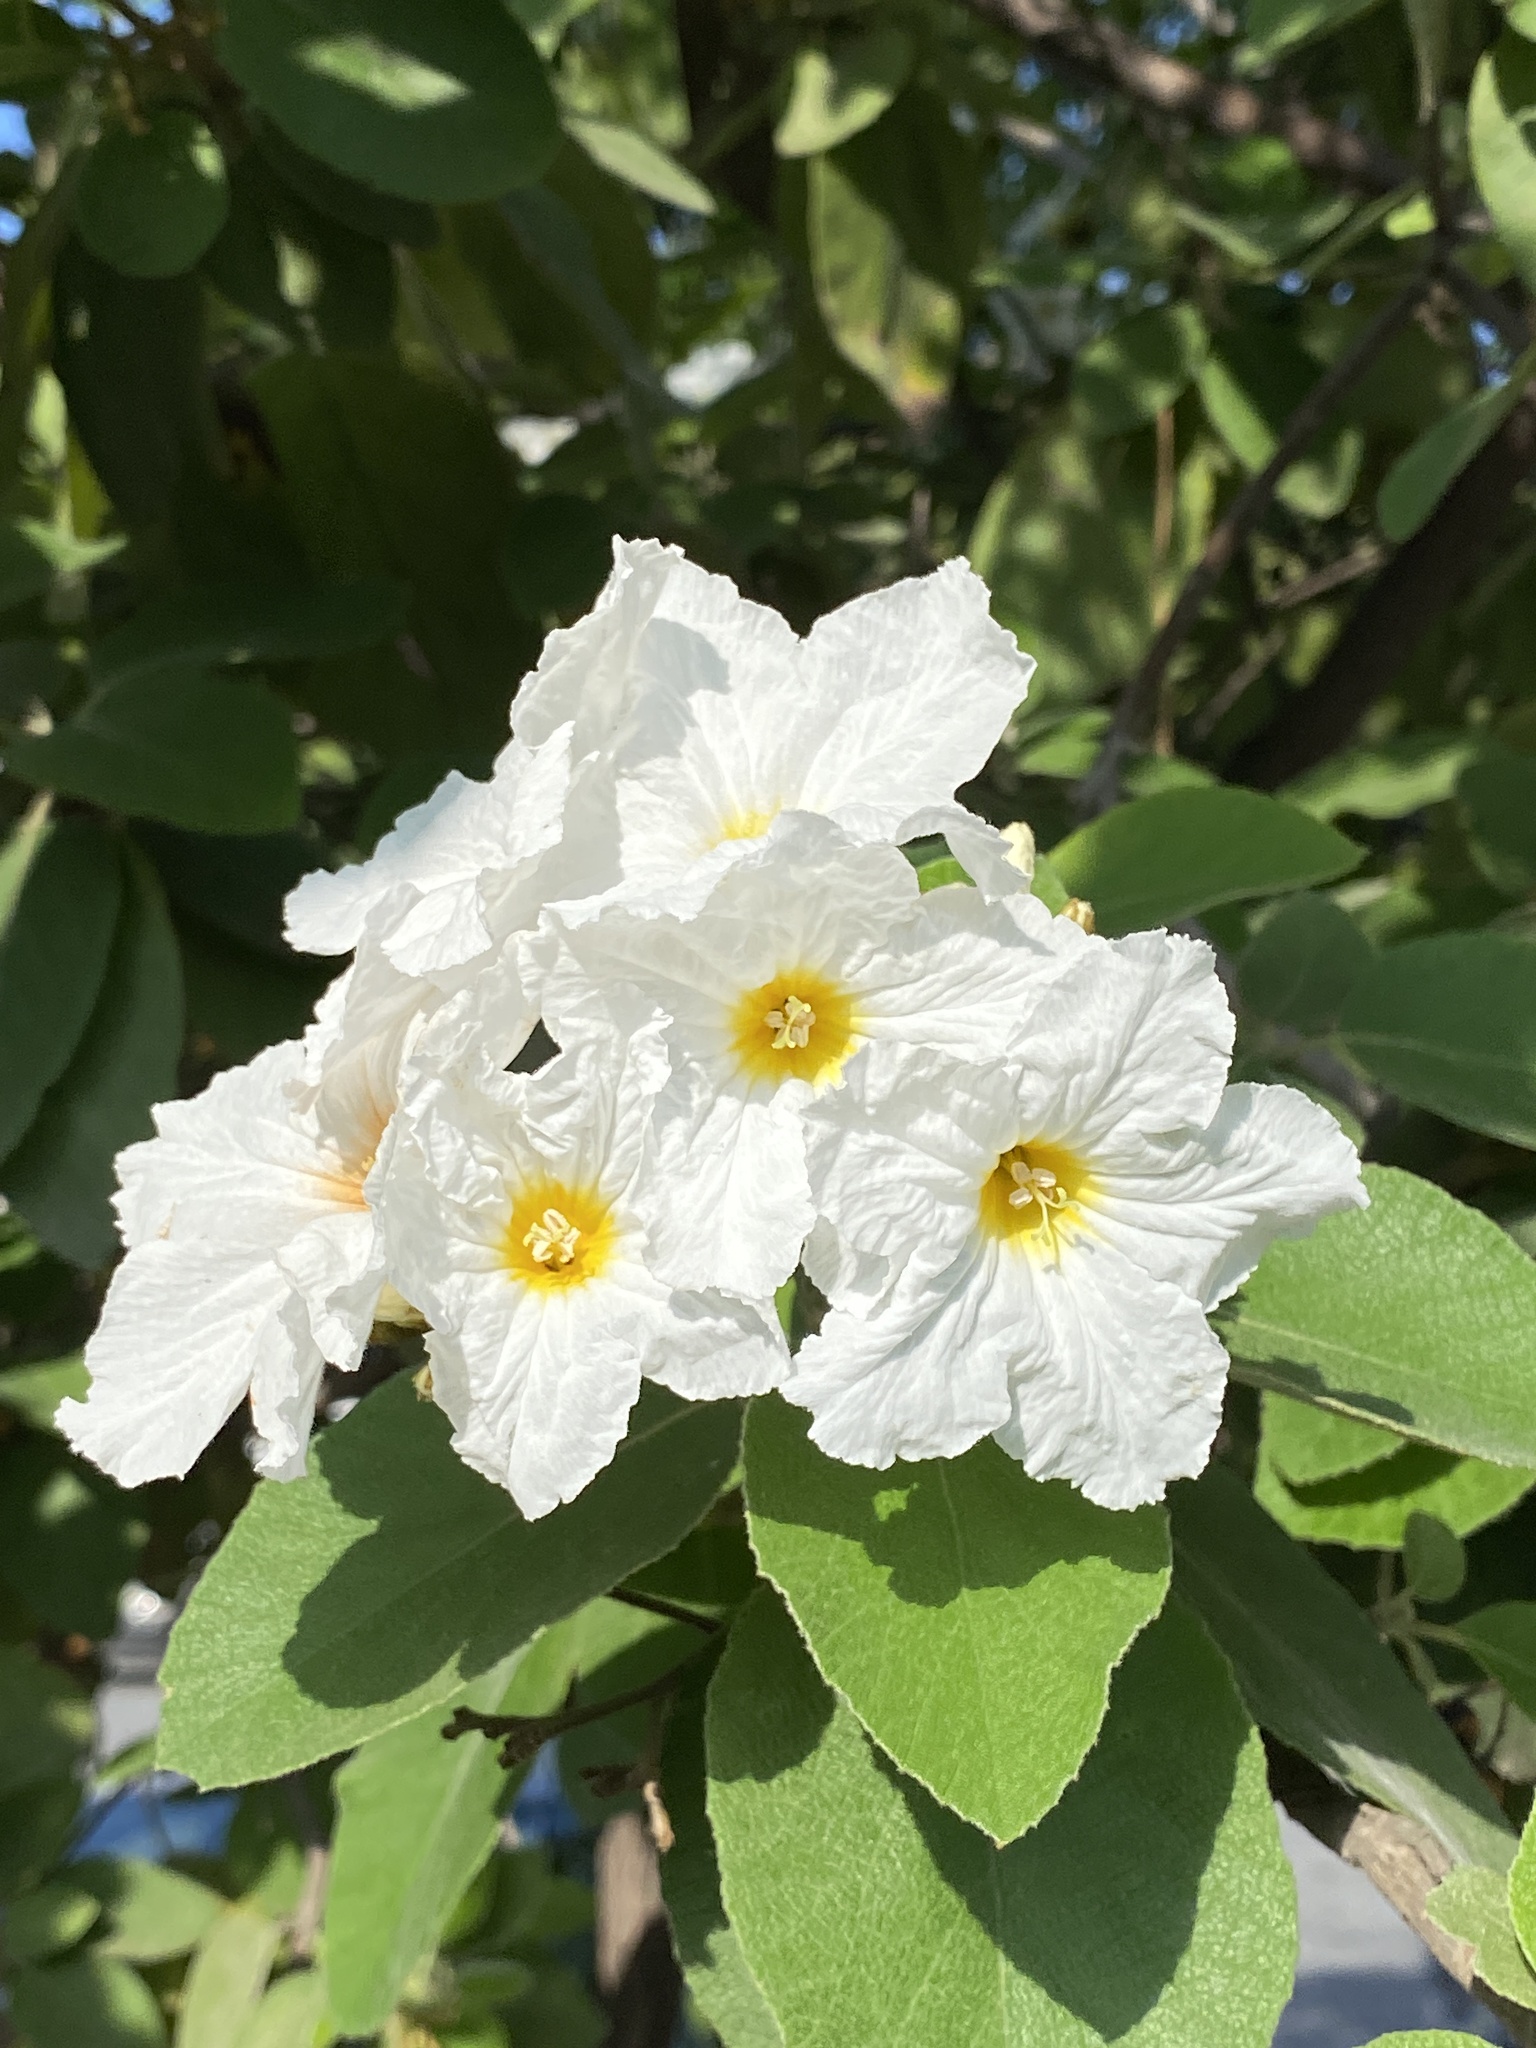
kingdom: Plantae
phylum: Tracheophyta
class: Magnoliopsida
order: Boraginales
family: Cordiaceae
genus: Cordia
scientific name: Cordia boissieri
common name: Mexican-olive
